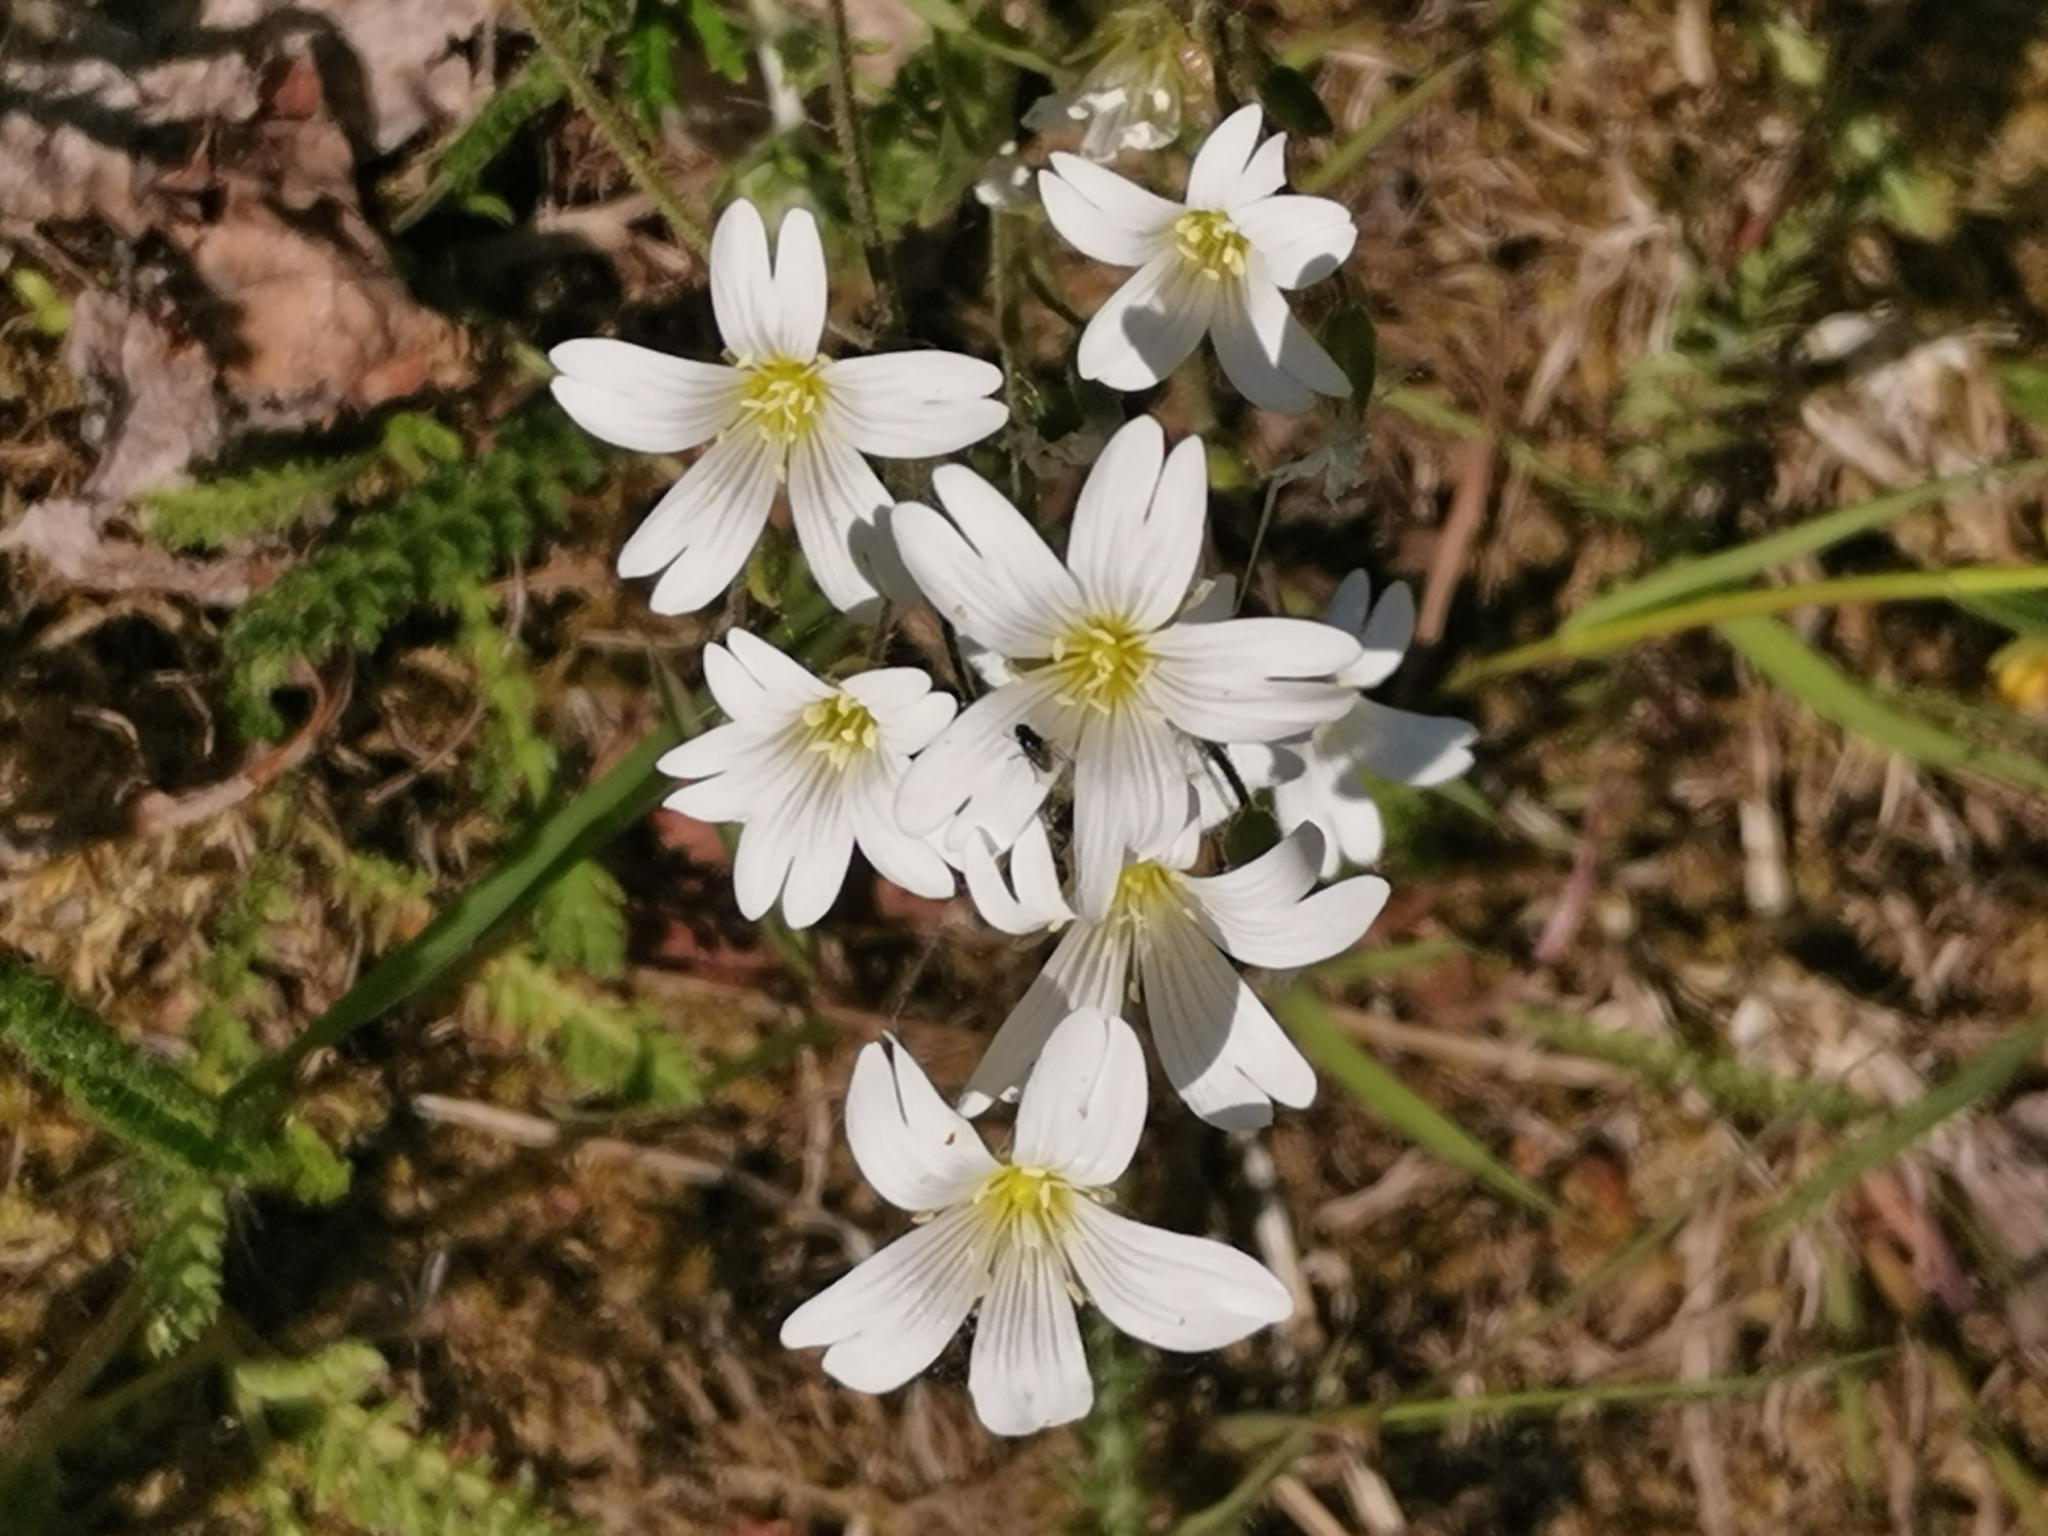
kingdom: Plantae
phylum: Tracheophyta
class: Magnoliopsida
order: Caryophyllales
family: Caryophyllaceae
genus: Cerastium
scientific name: Cerastium arvense
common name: Field mouse-ear
